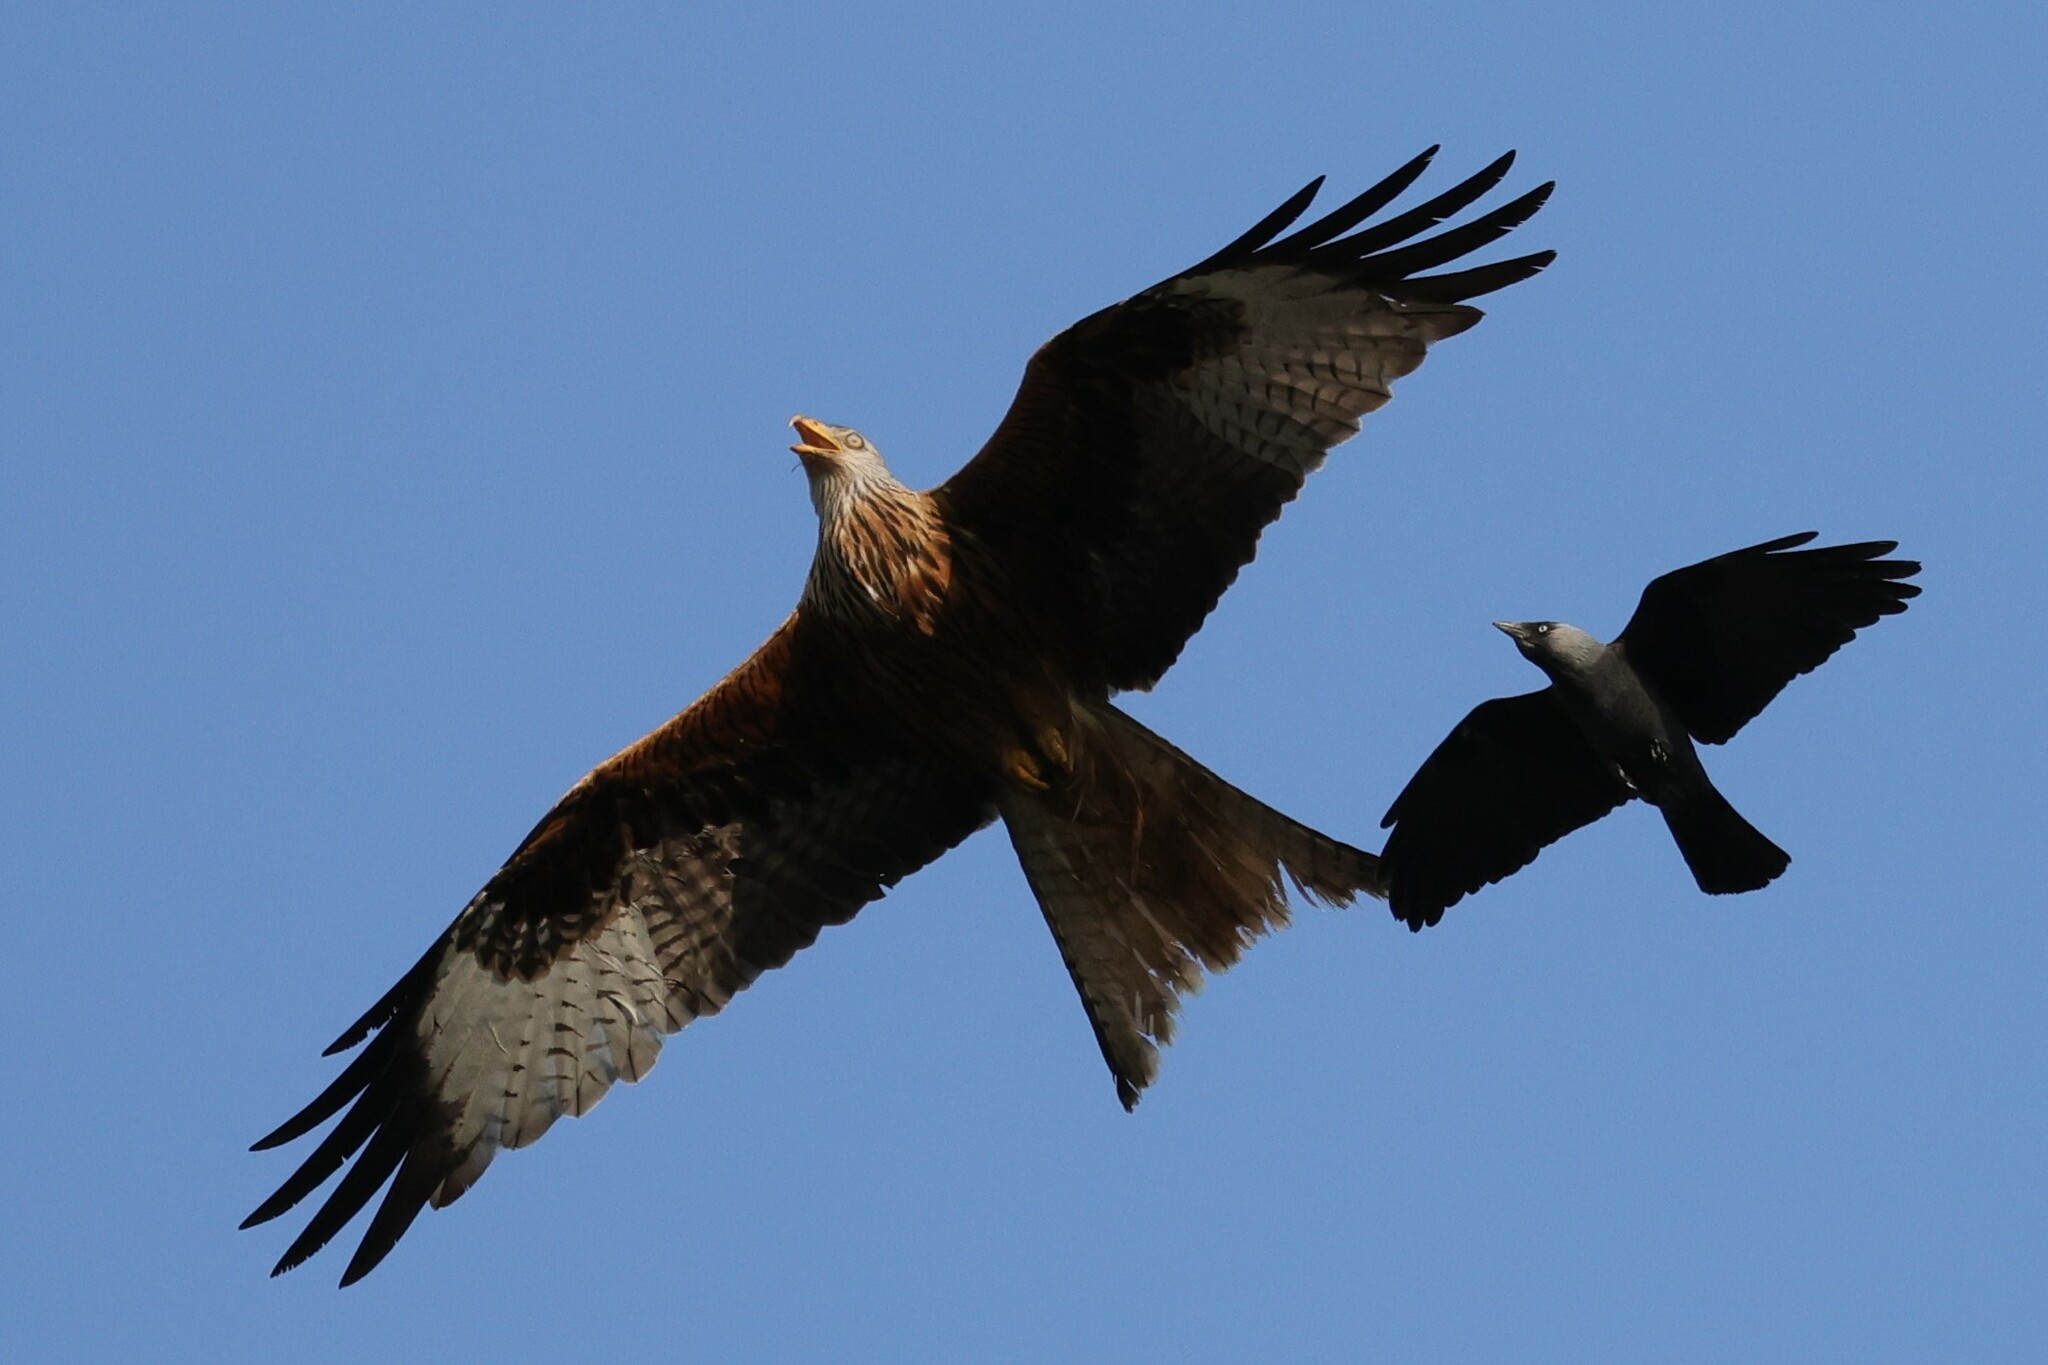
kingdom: Animalia
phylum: Chordata
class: Aves
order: Accipitriformes
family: Accipitridae
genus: Milvus
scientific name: Milvus milvus
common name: Red kite
